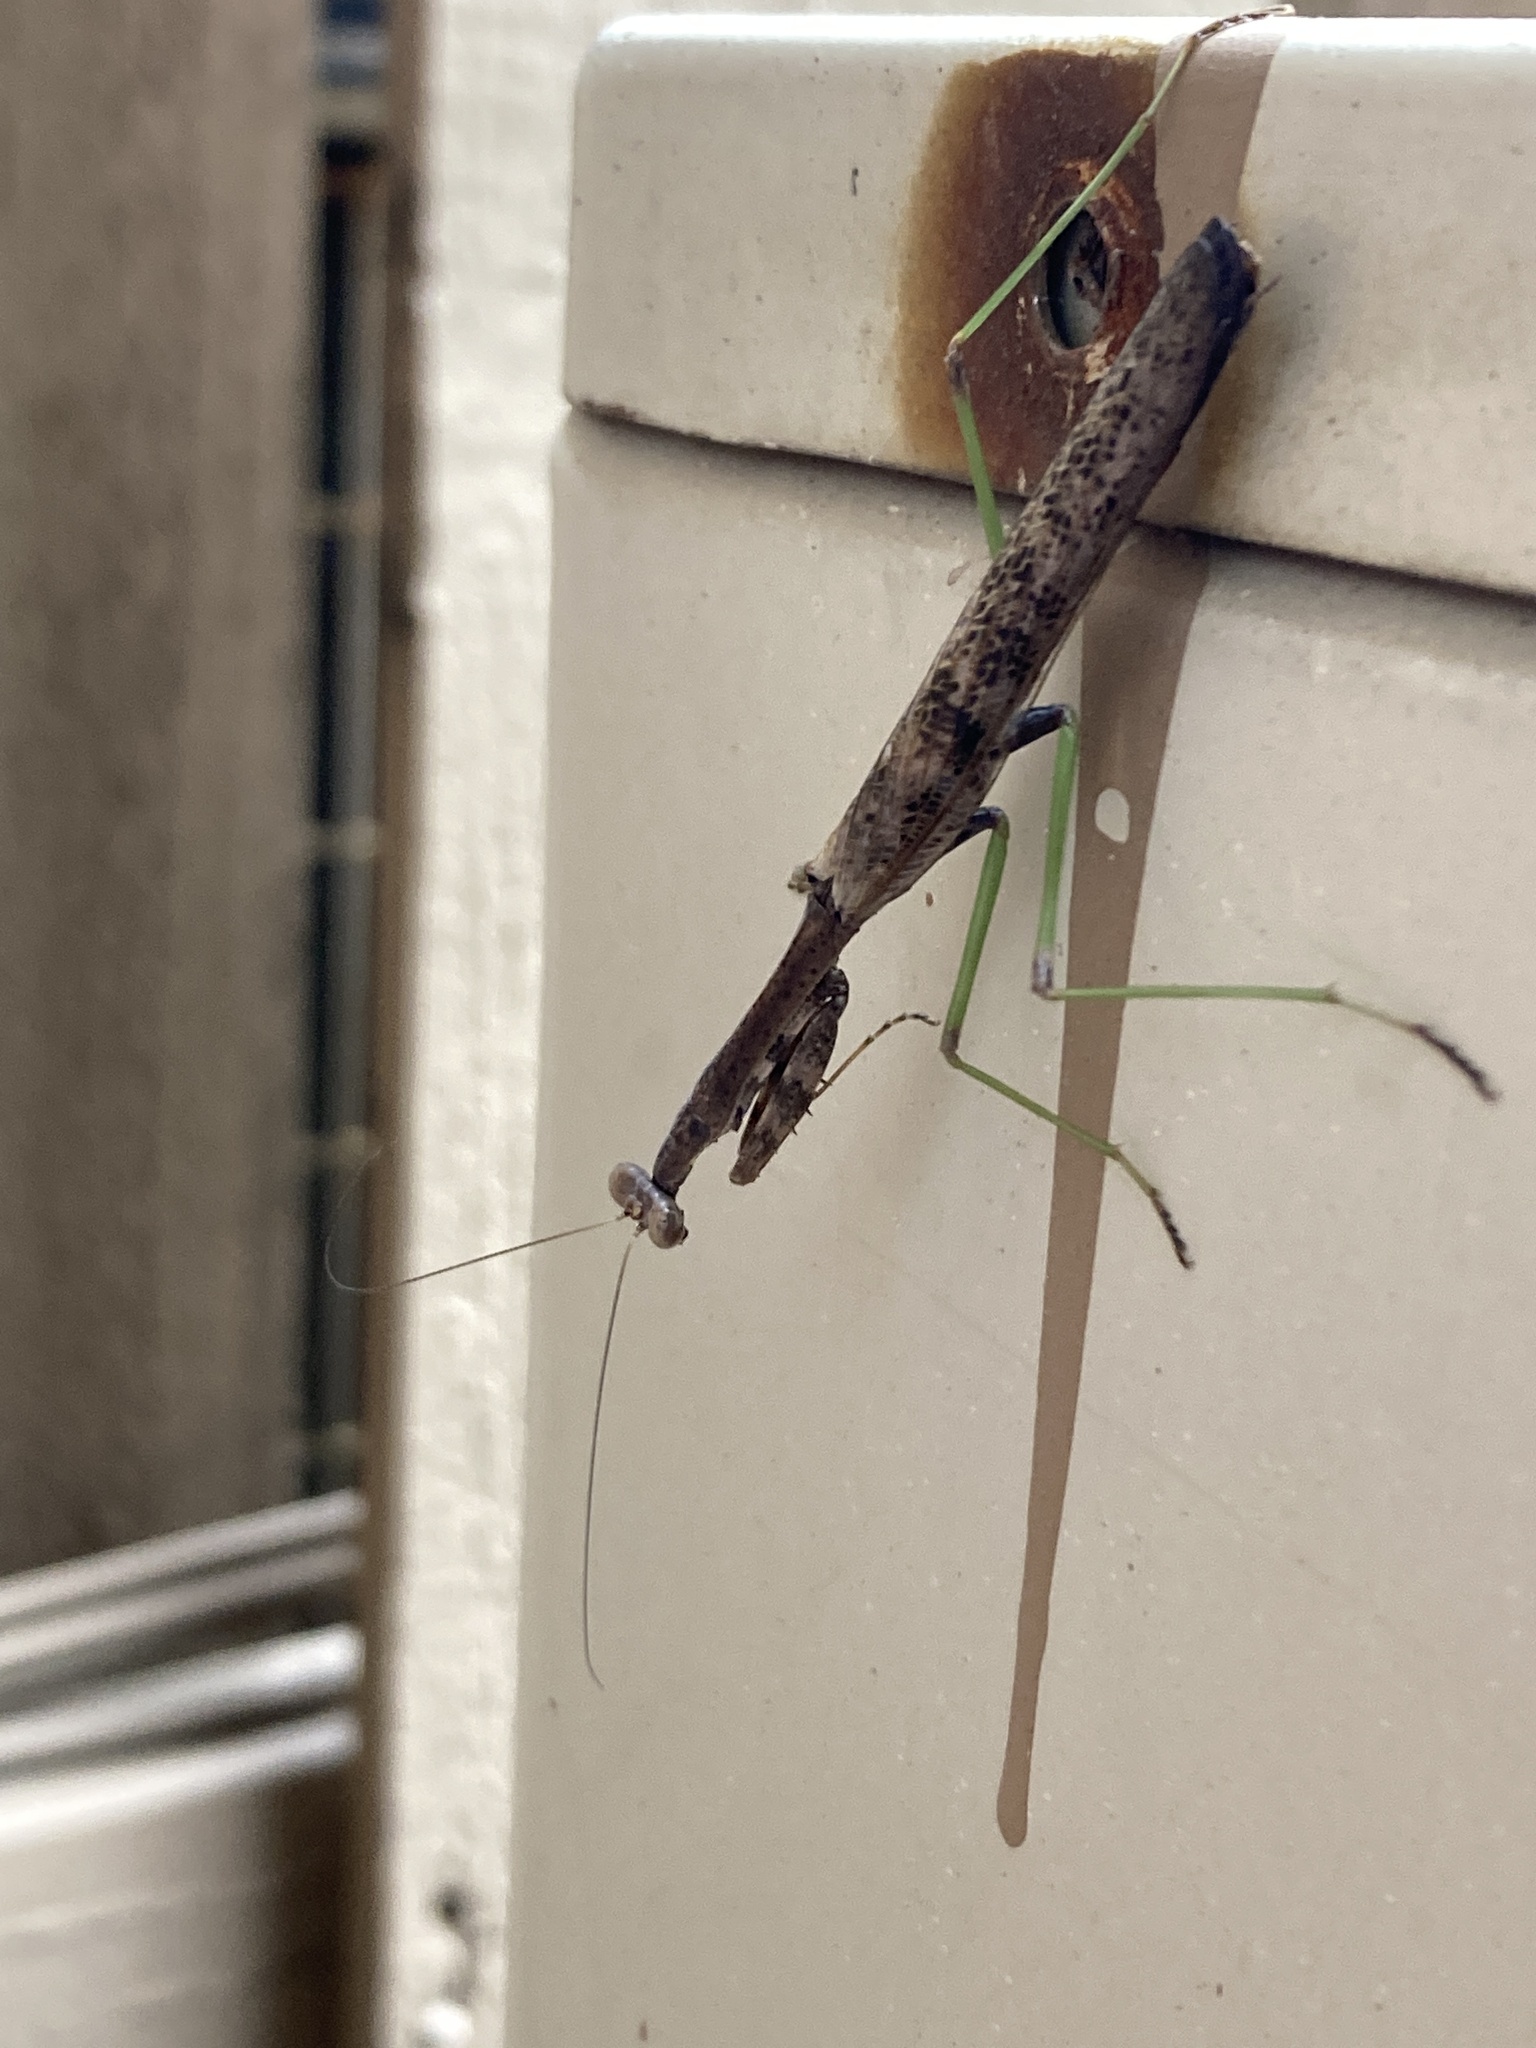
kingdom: Animalia
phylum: Arthropoda
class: Insecta
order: Mantodea
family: Mantidae
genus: Stagmomantis
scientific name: Stagmomantis carolina
